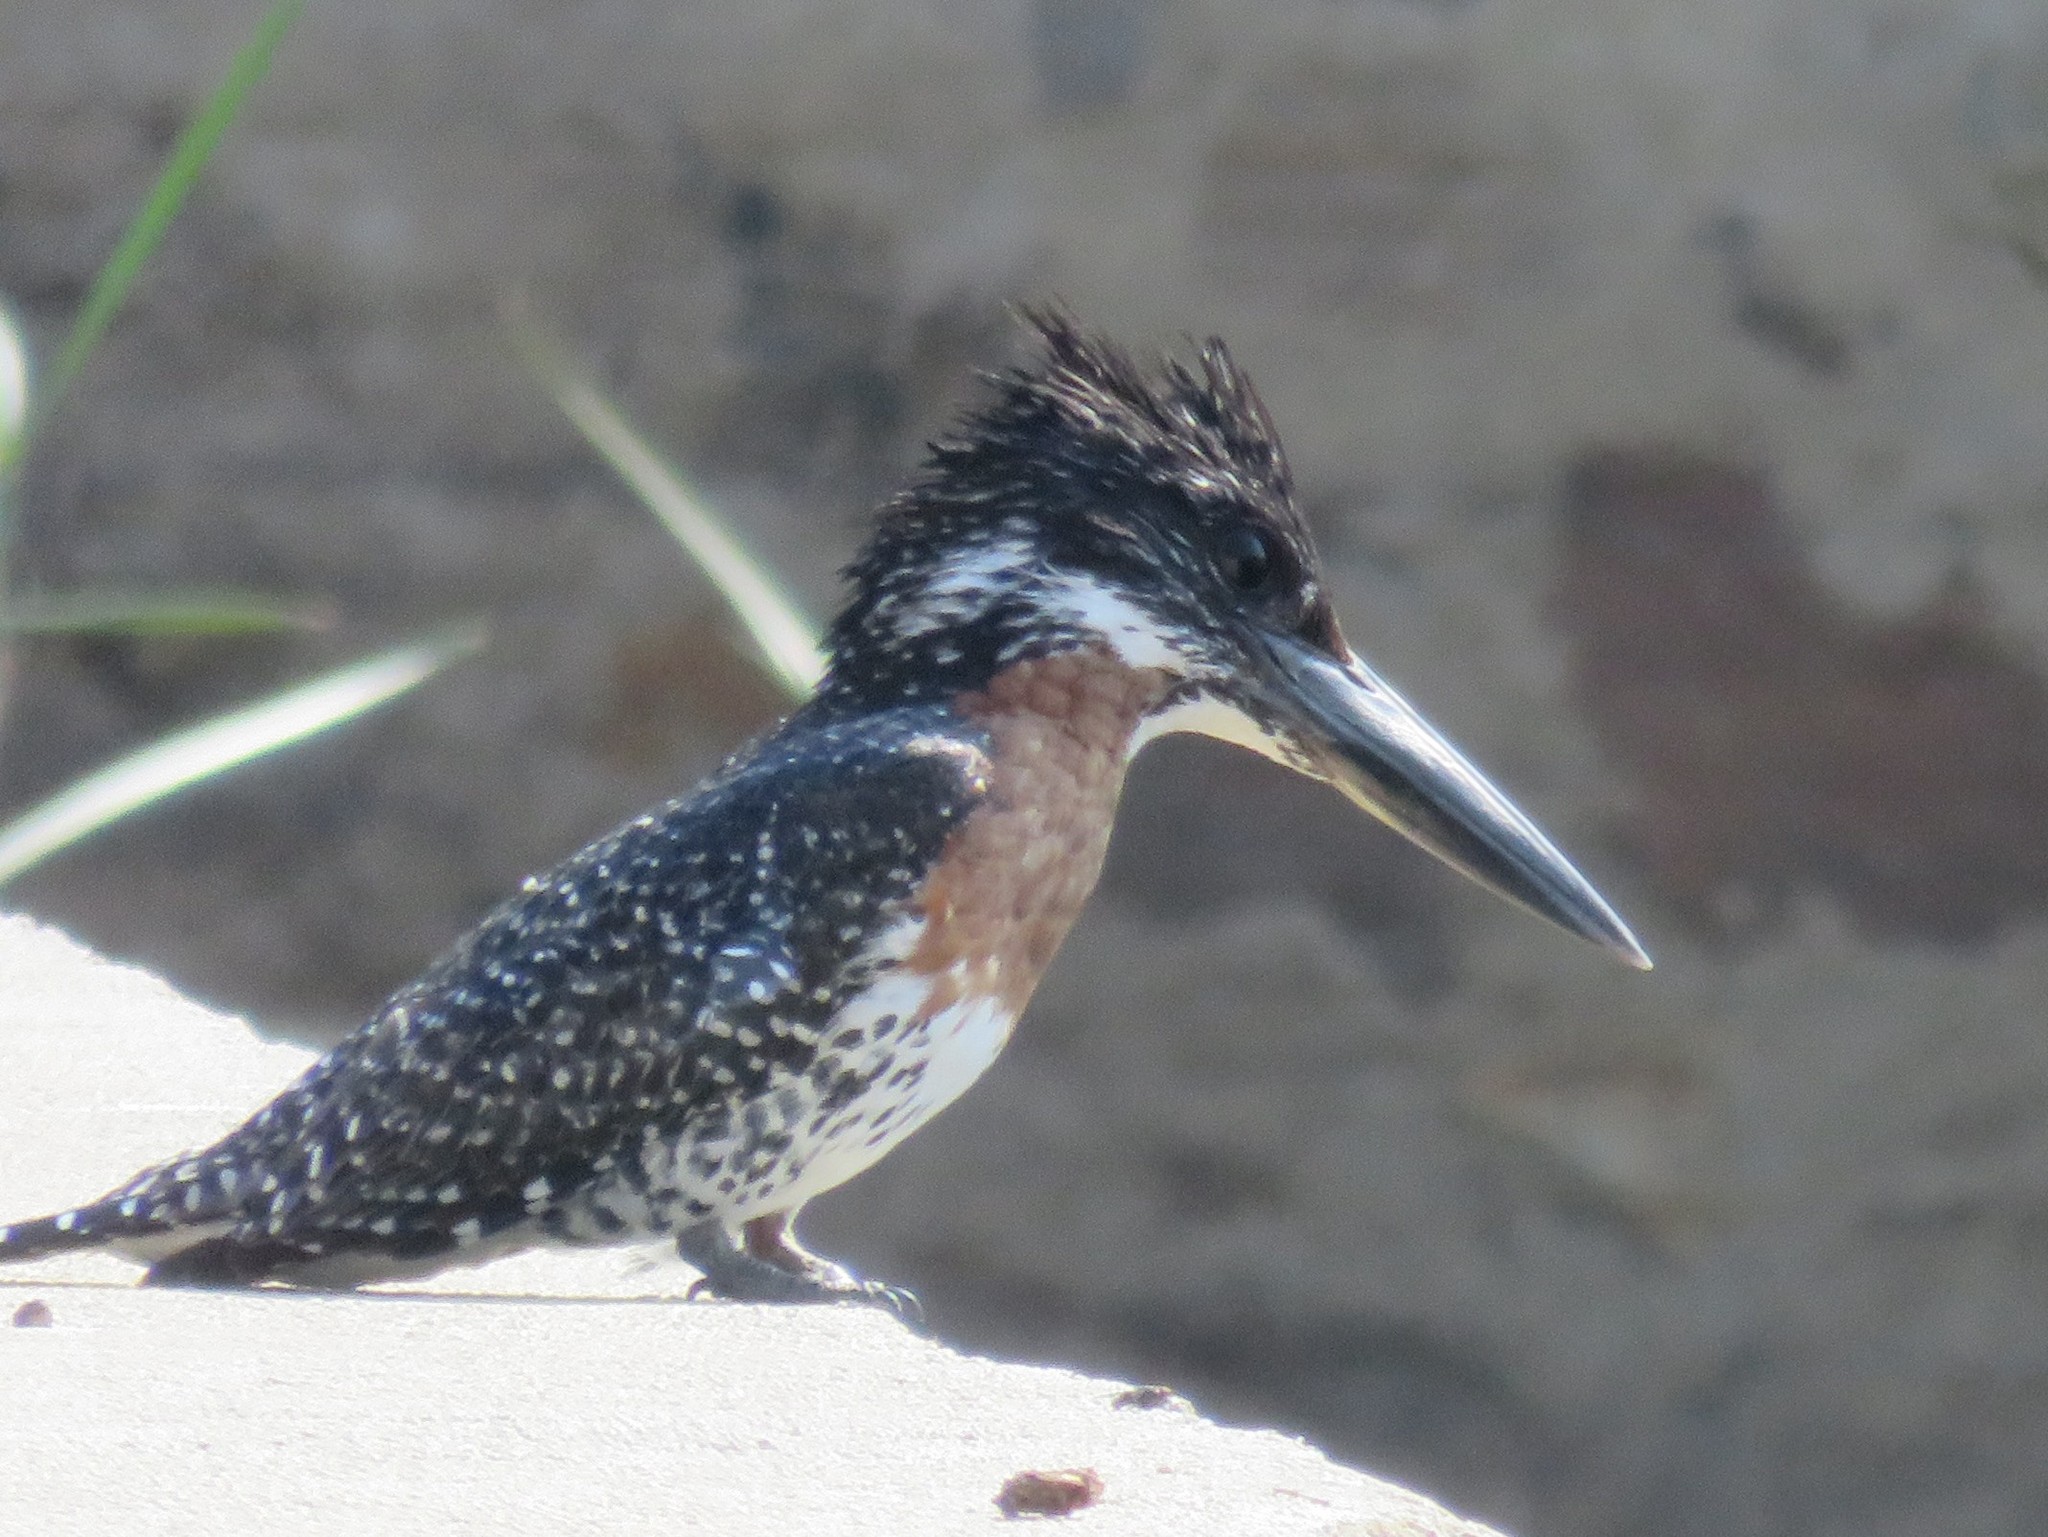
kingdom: Animalia
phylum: Chordata
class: Aves
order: Coraciiformes
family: Alcedinidae
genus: Megaceryle
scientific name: Megaceryle maxima
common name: Giant kingfisher
